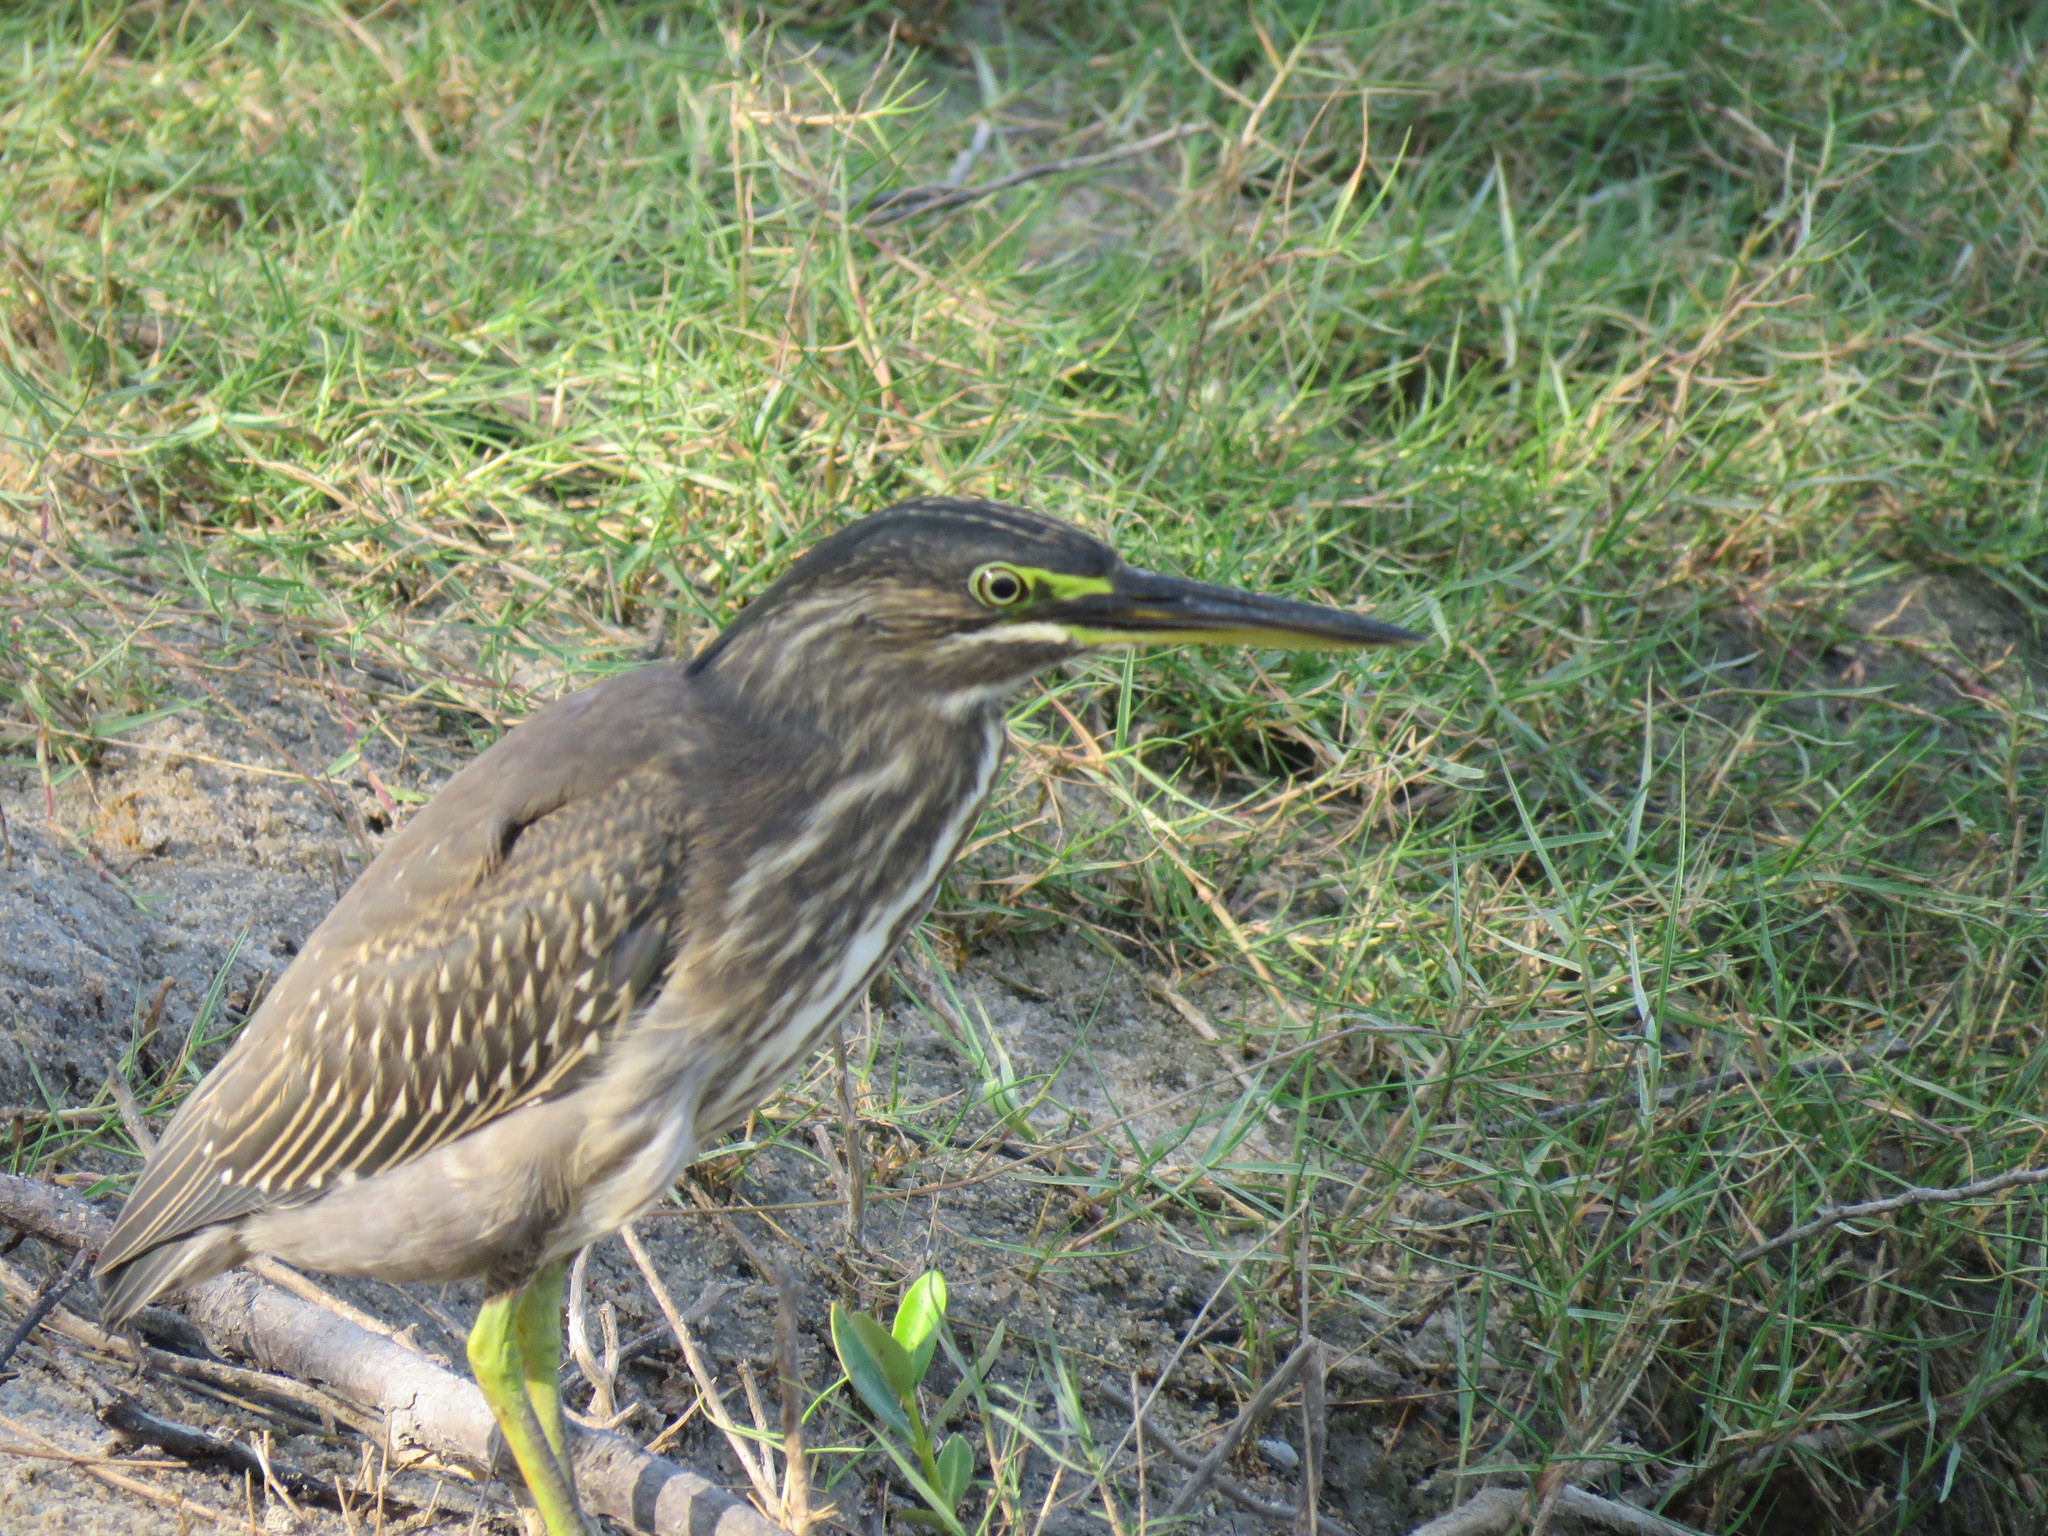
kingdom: Animalia
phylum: Chordata
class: Aves
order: Pelecaniformes
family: Ardeidae
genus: Butorides
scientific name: Butorides striata
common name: Striated heron
